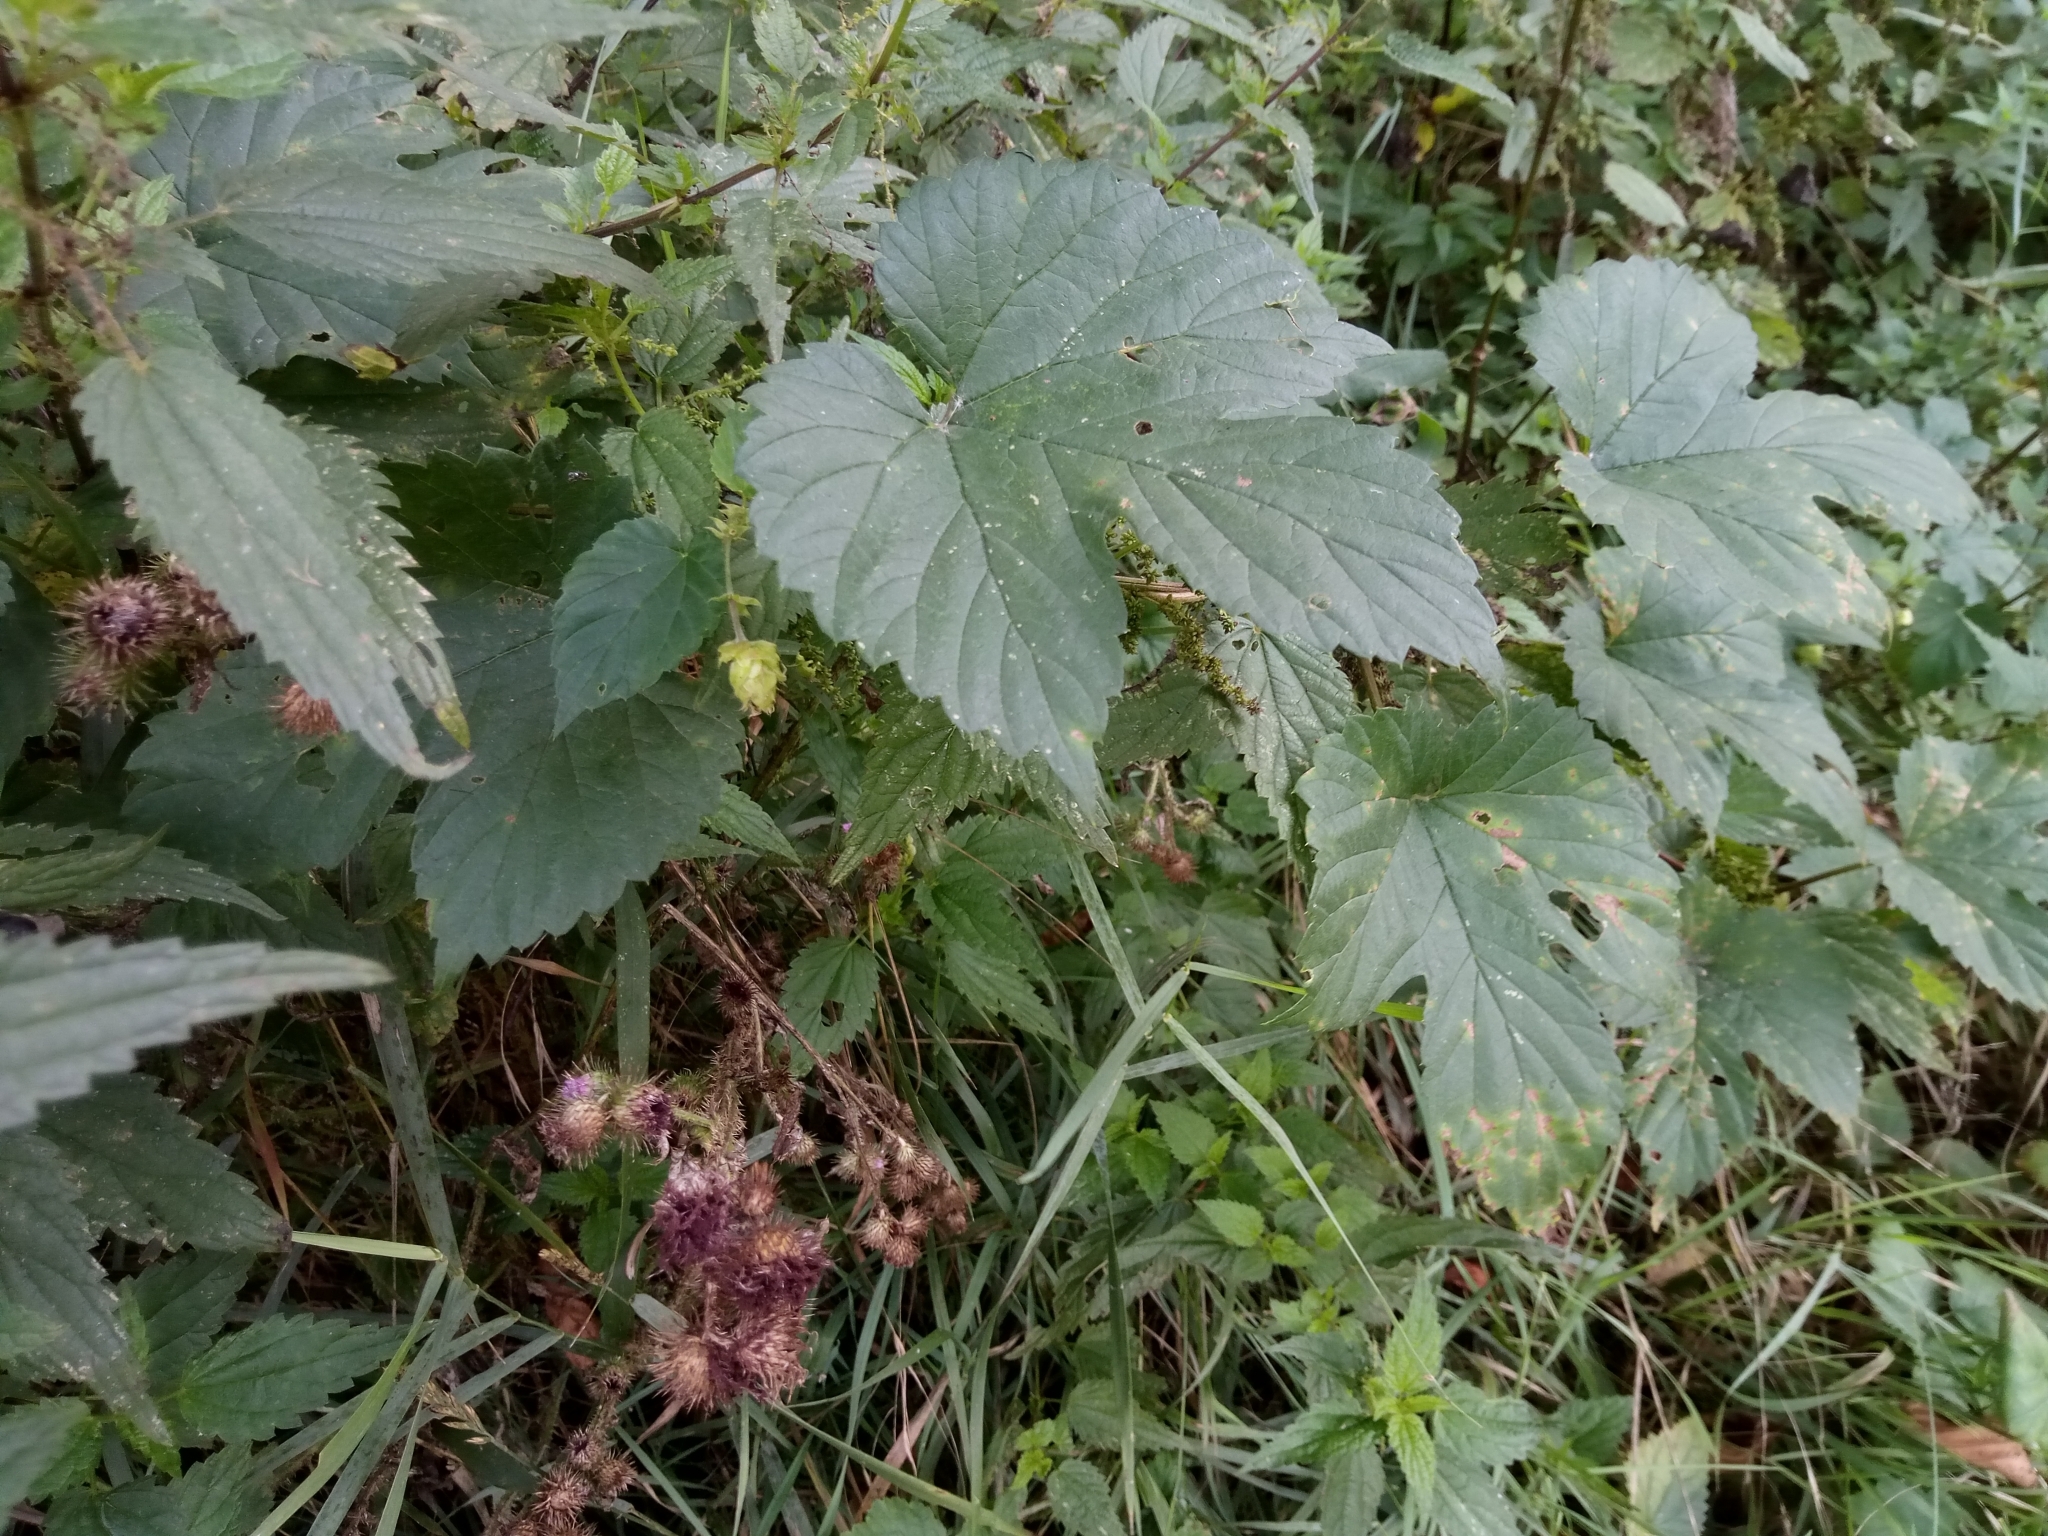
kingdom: Plantae
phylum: Tracheophyta
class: Magnoliopsida
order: Rosales
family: Cannabaceae
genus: Humulus
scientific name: Humulus lupulus
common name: Hop
